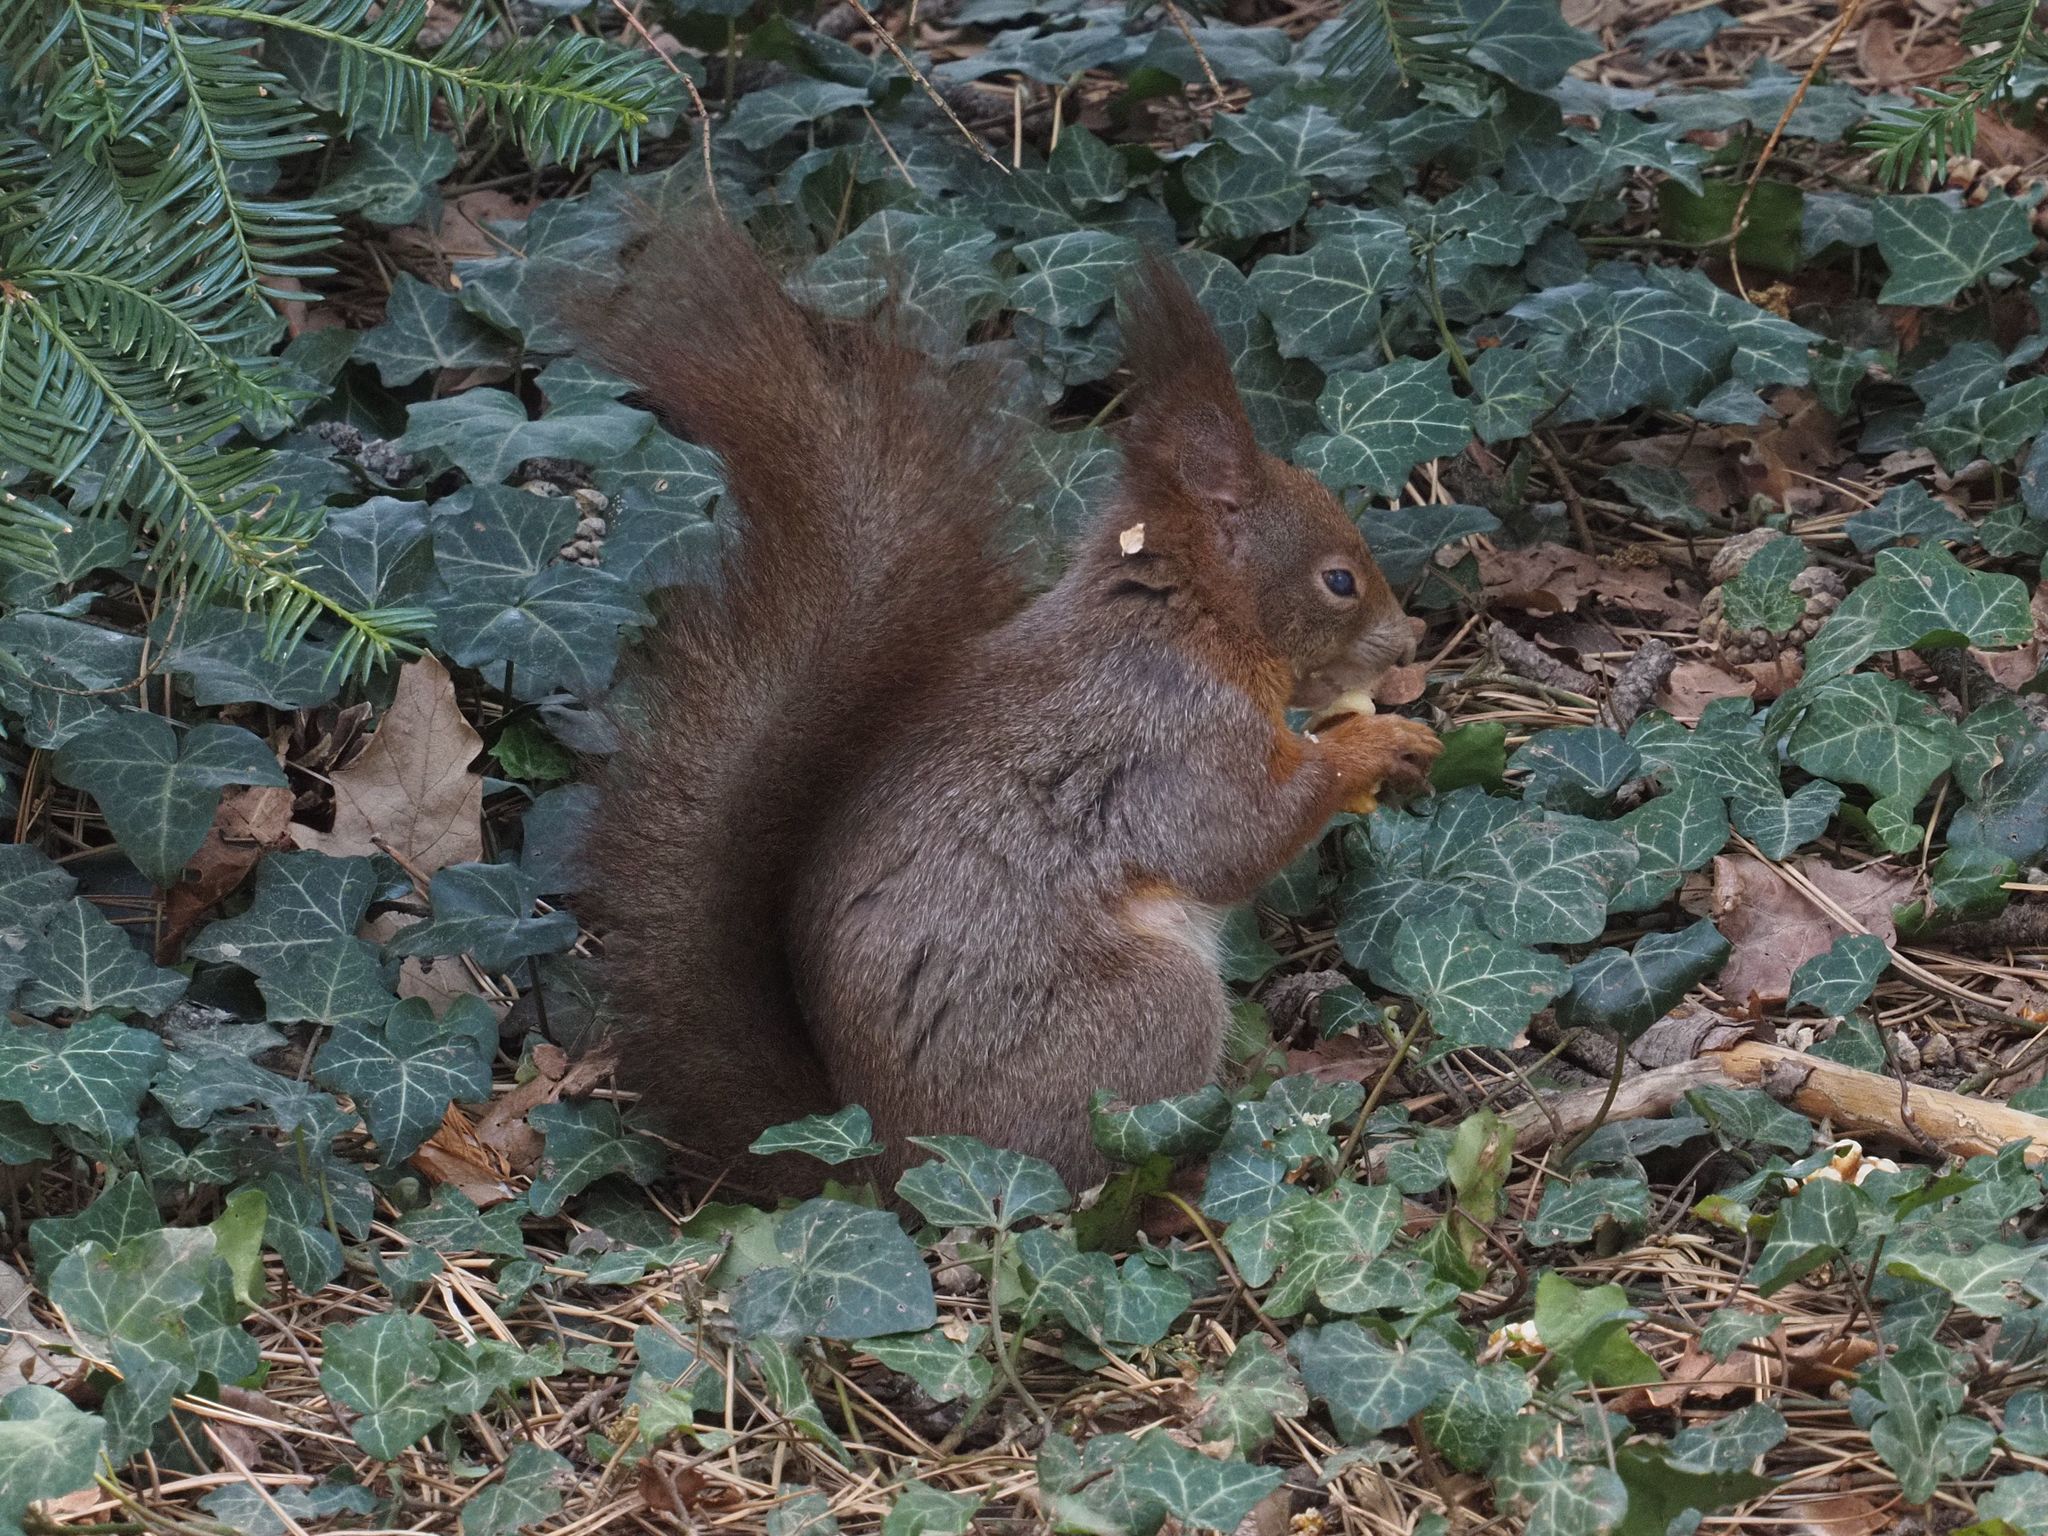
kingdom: Animalia
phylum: Chordata
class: Mammalia
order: Rodentia
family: Sciuridae
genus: Sciurus
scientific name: Sciurus vulgaris
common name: Eurasian red squirrel
